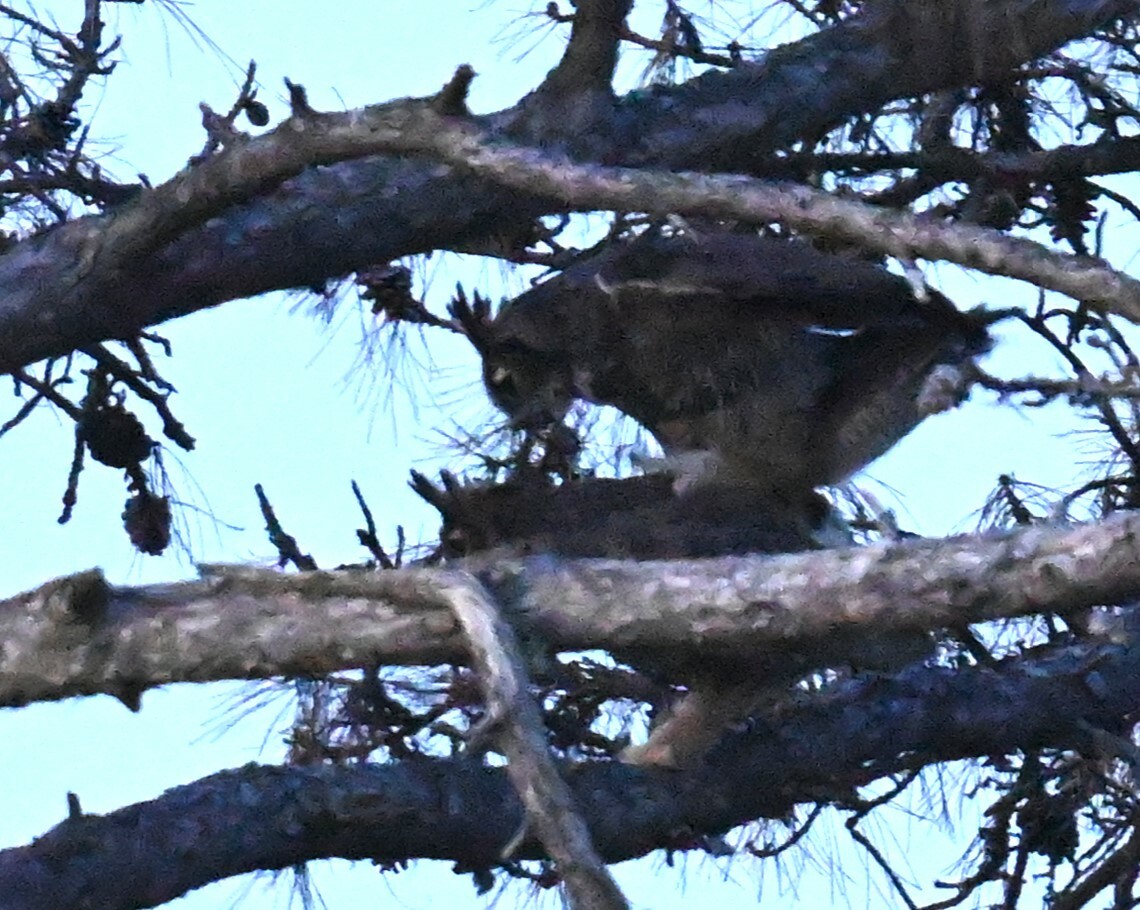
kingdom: Animalia
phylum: Chordata
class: Aves
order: Strigiformes
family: Strigidae
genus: Bubo
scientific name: Bubo virginianus
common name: Great horned owl
